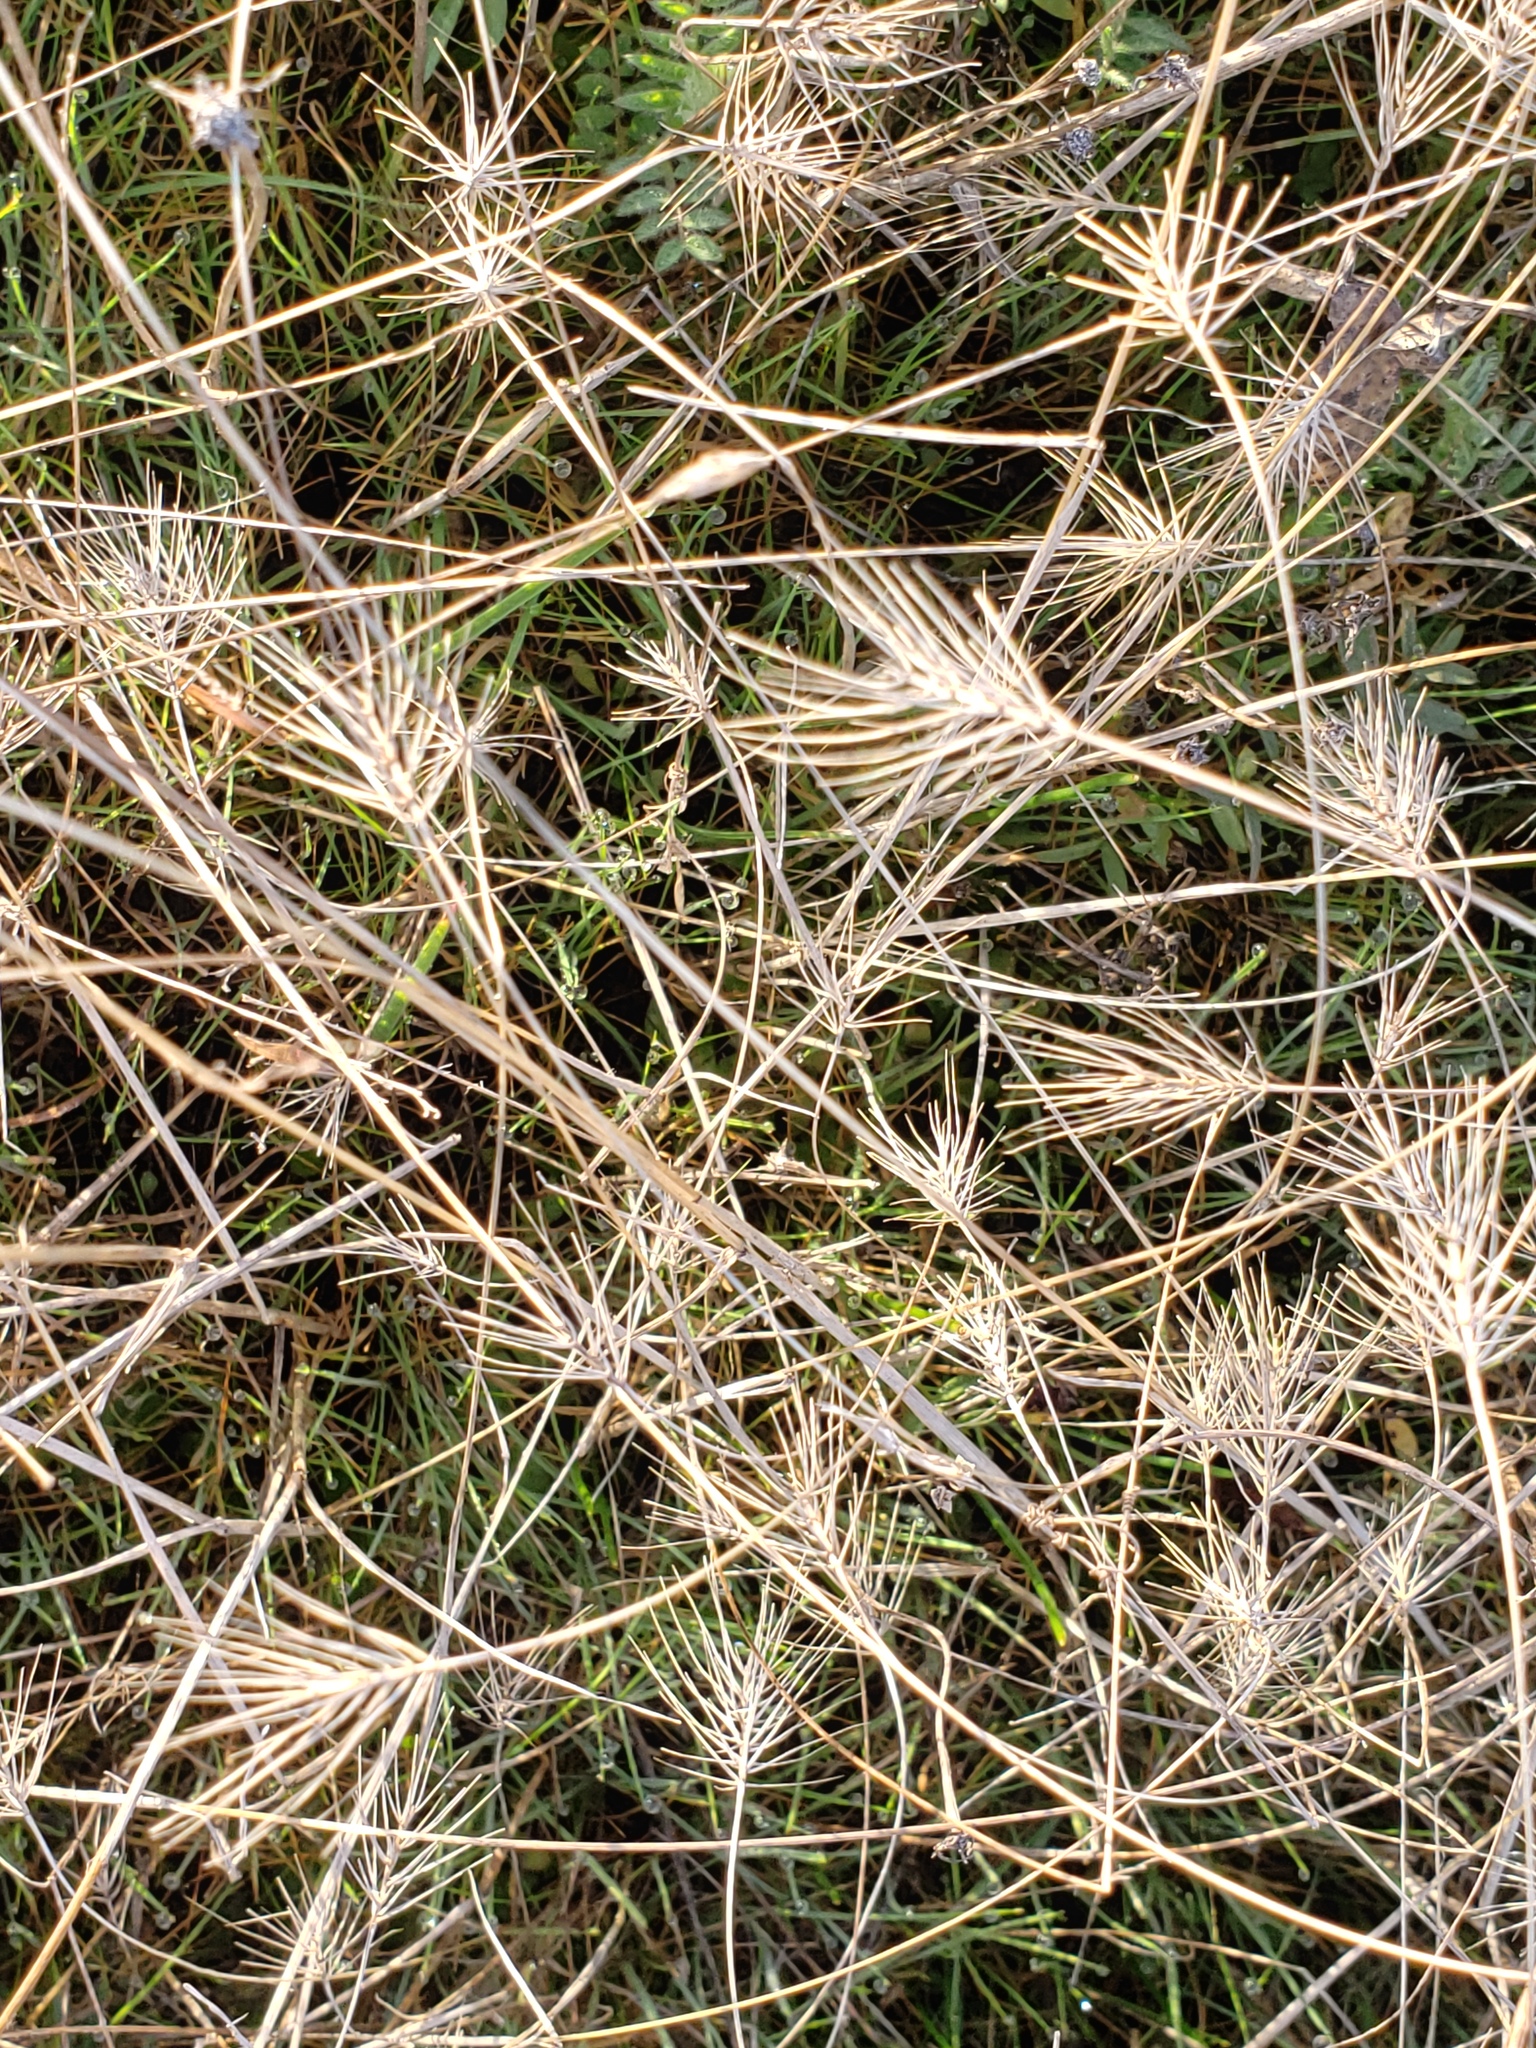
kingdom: Plantae
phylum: Tracheophyta
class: Liliopsida
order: Poales
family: Poaceae
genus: Taeniatherum
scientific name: Taeniatherum caput-medusae
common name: Medusahead
